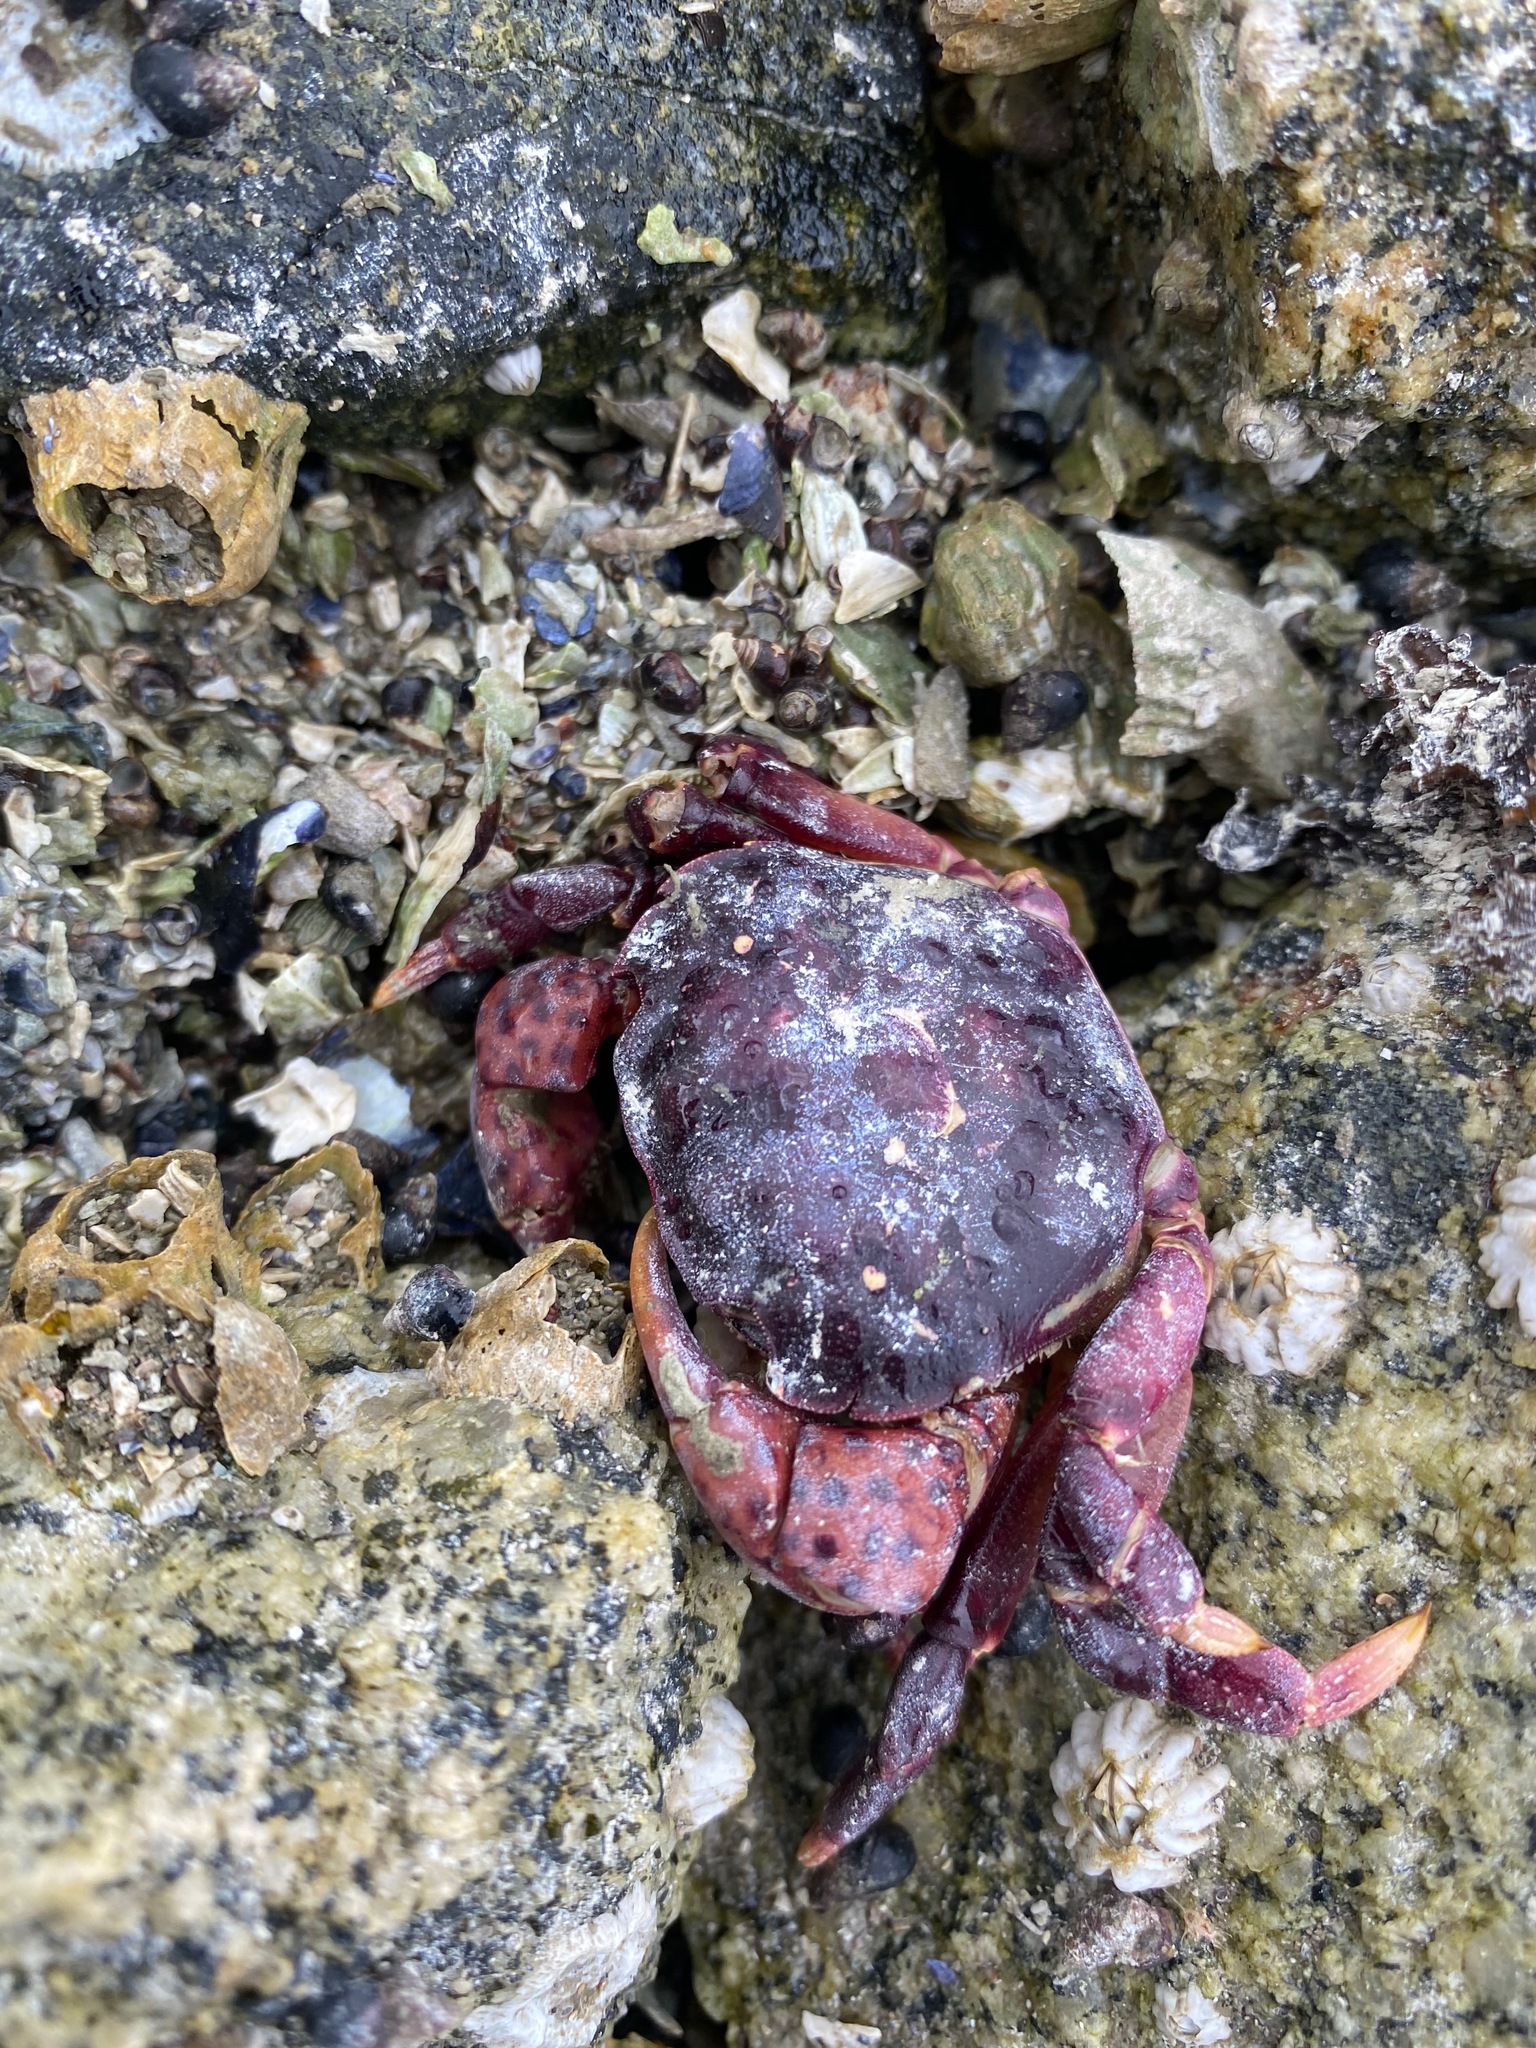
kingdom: Animalia
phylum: Arthropoda
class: Malacostraca
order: Decapoda
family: Varunidae
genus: Hemigrapsus
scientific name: Hemigrapsus nudus
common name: Purple shore crab
